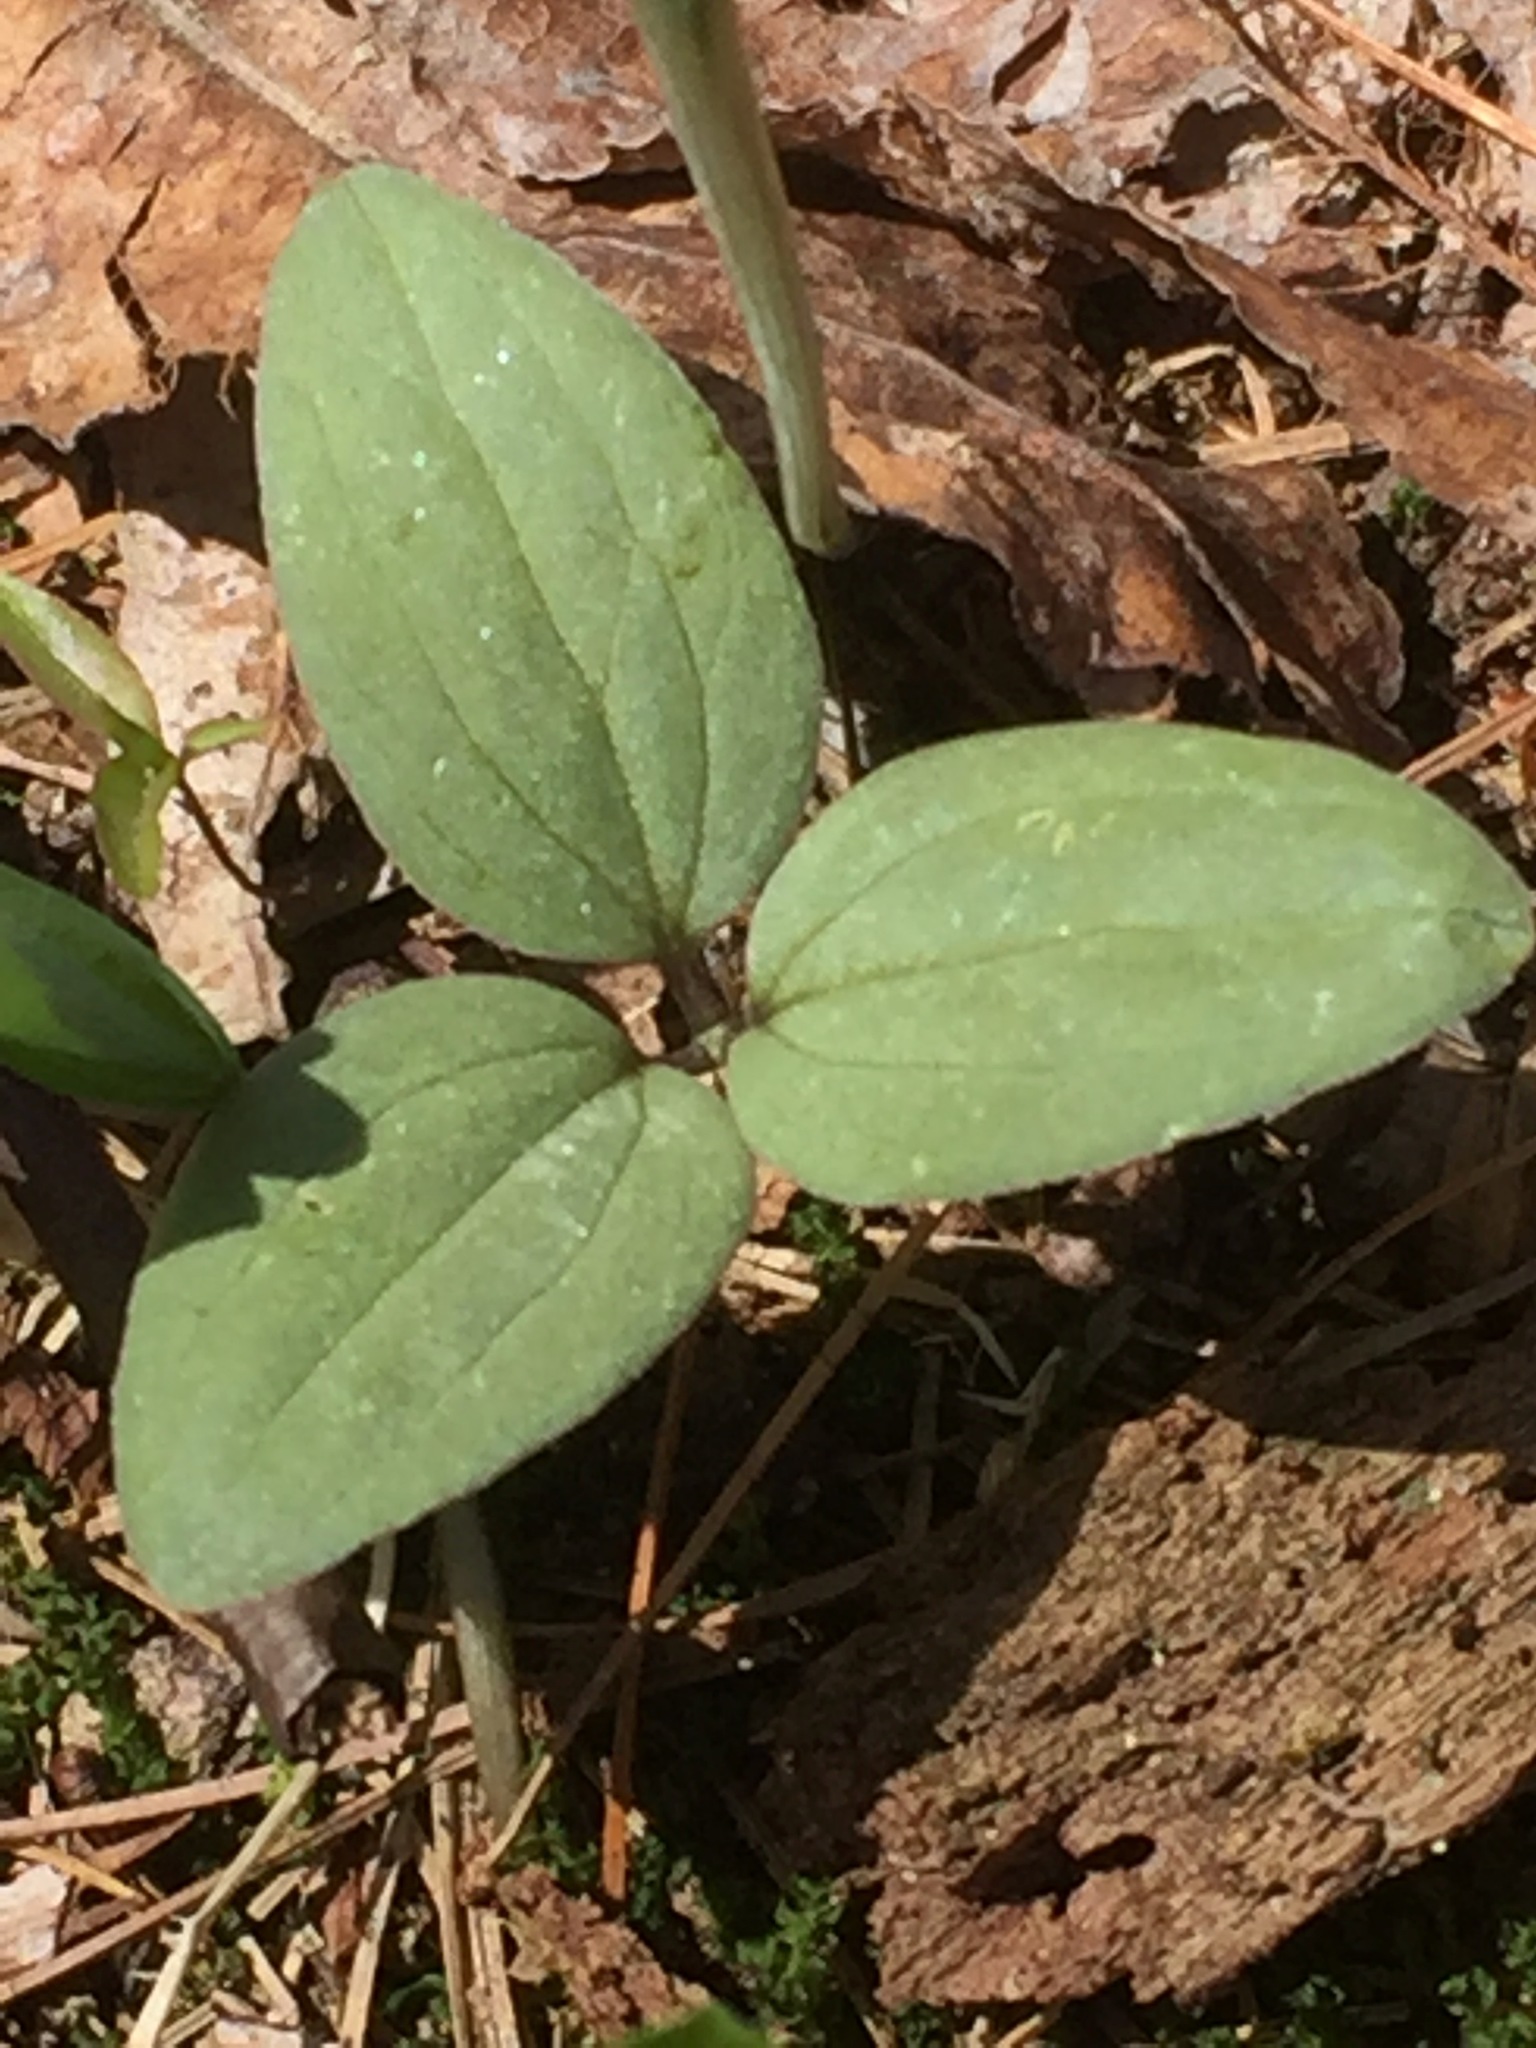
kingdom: Plantae
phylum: Tracheophyta
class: Liliopsida
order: Liliales
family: Melanthiaceae
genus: Trillium
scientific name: Trillium nivale
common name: Dwarf white trillium
